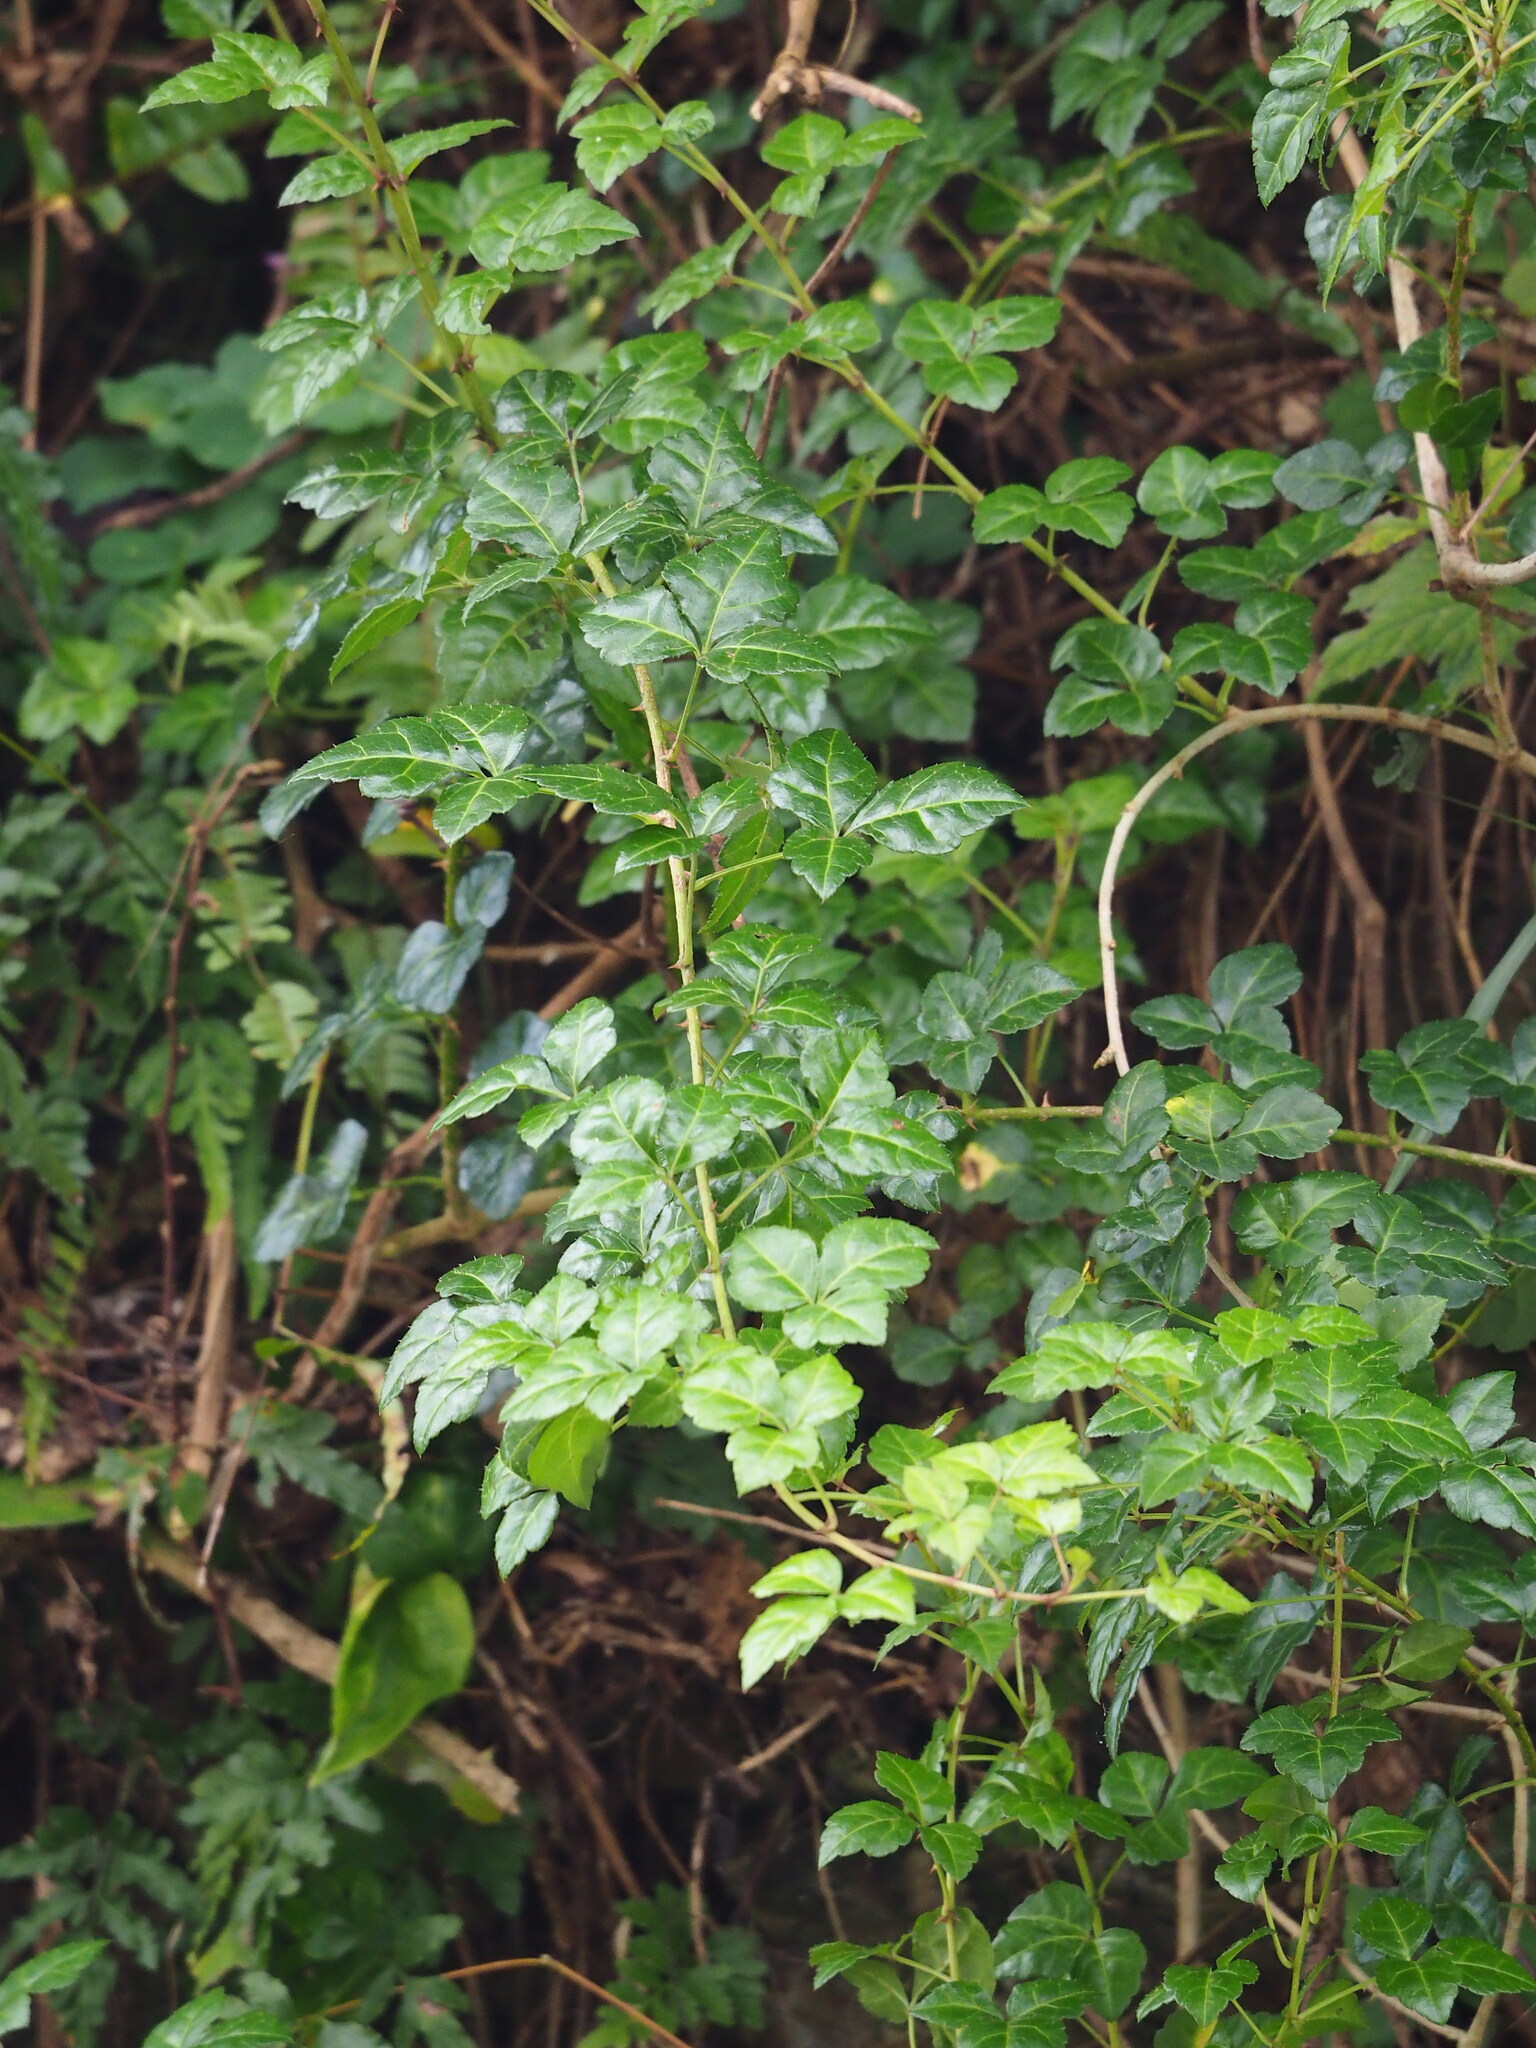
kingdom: Plantae
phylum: Tracheophyta
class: Magnoliopsida
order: Apiales
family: Araliaceae
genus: Eleutherococcus
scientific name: Eleutherococcus trifoliatus
